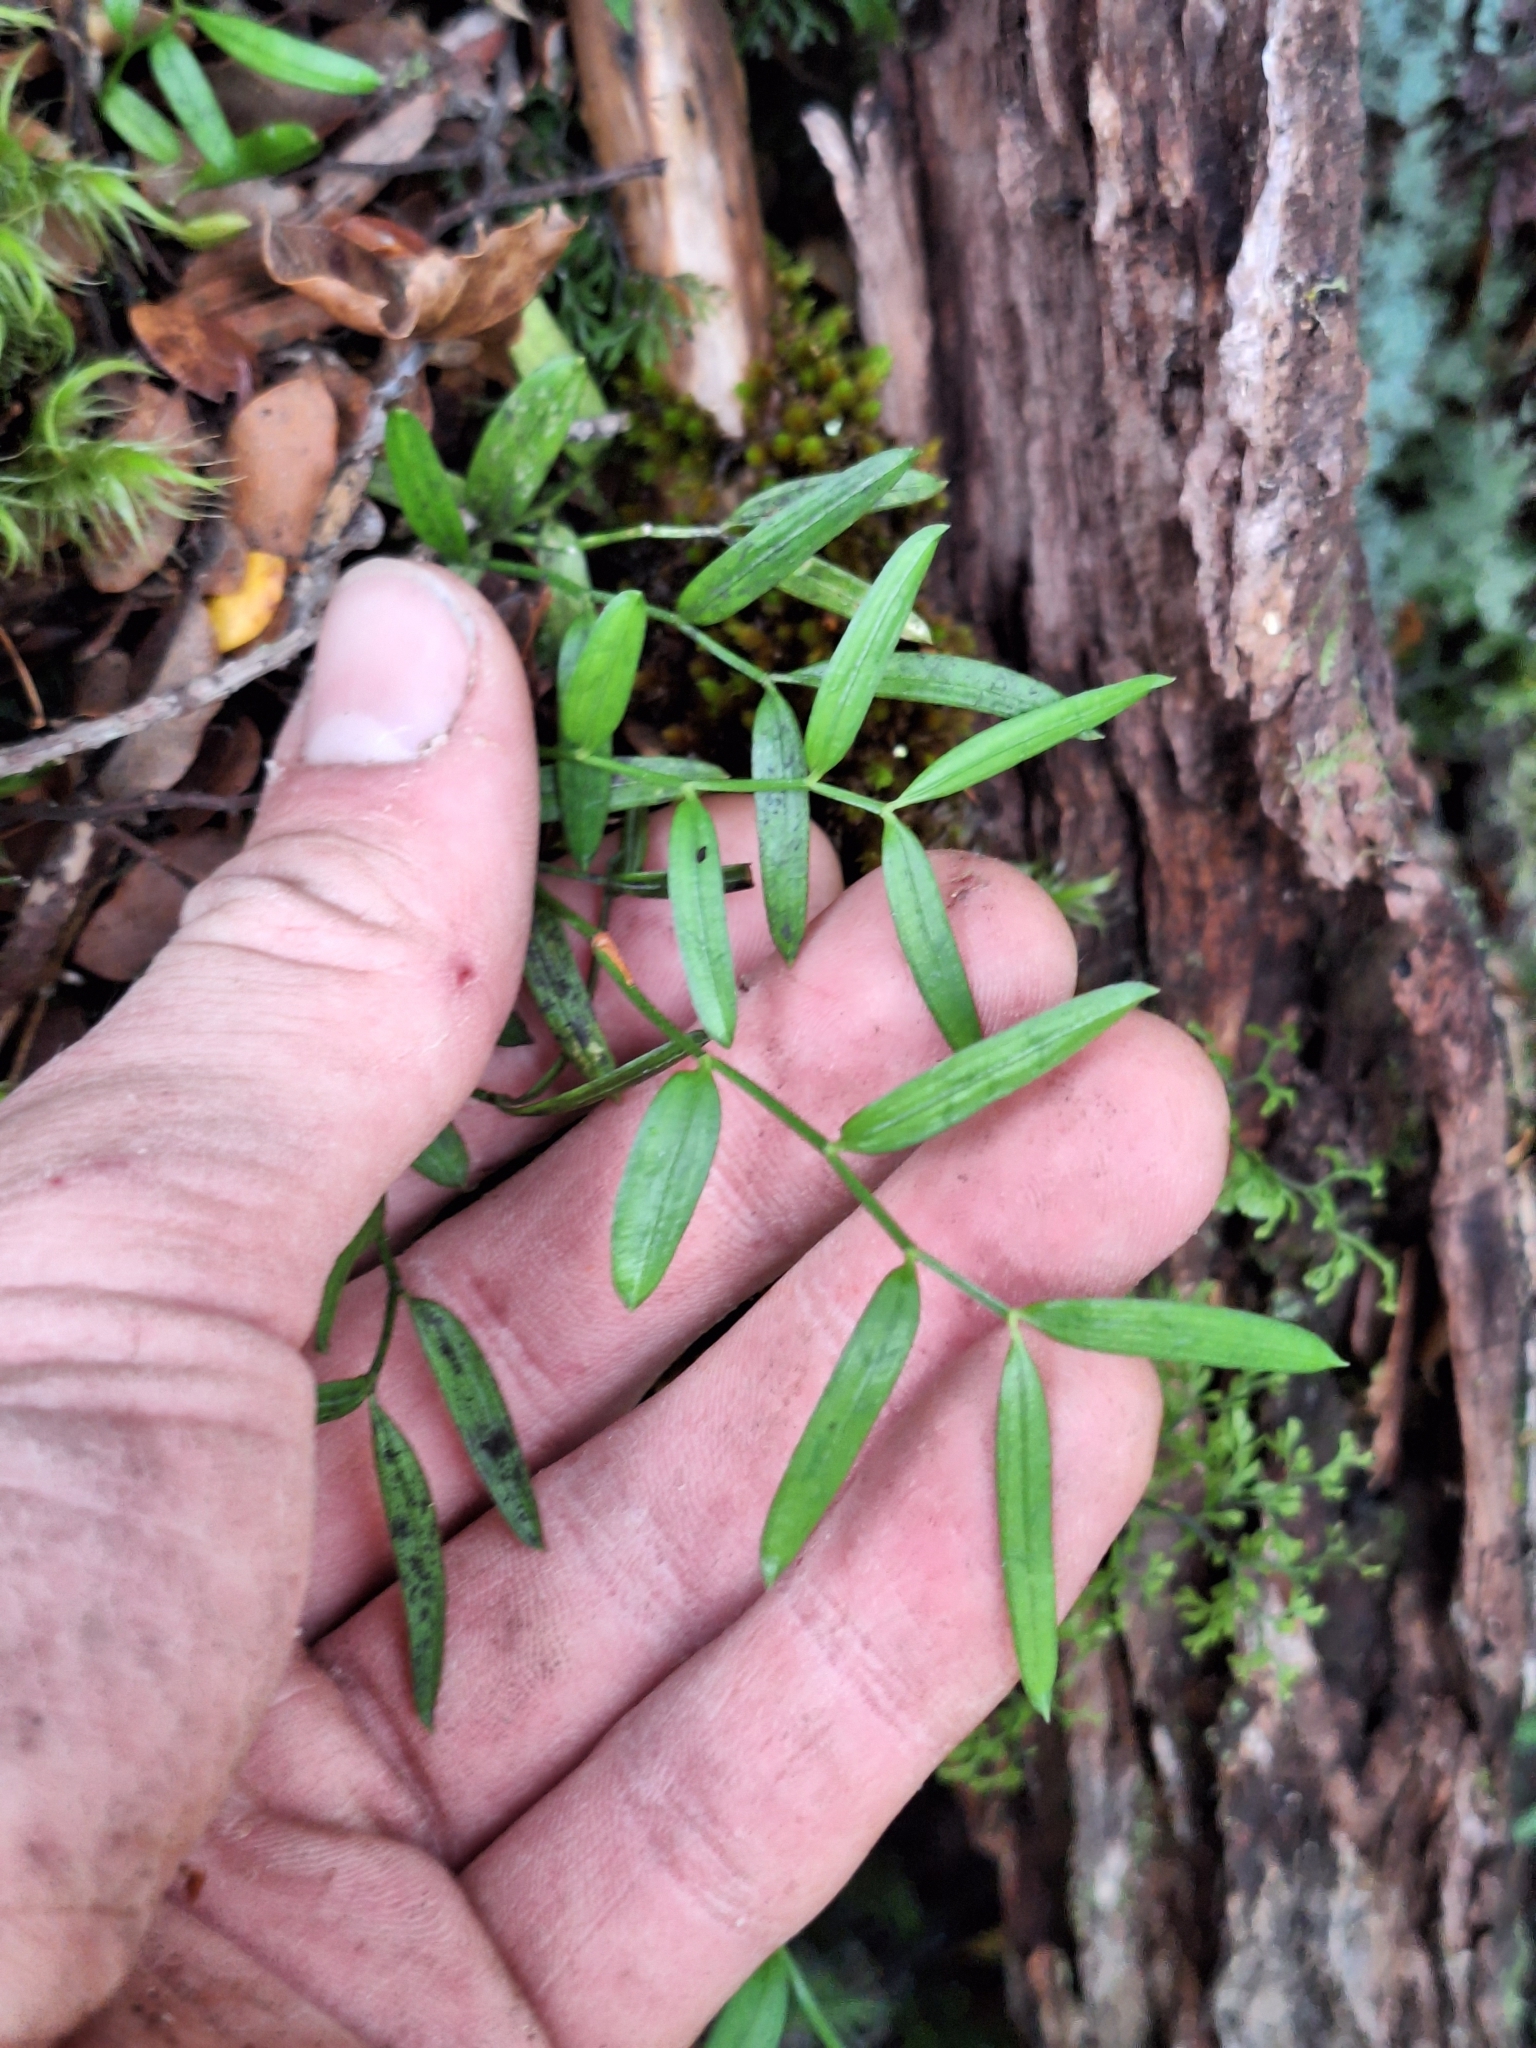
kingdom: Plantae
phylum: Tracheophyta
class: Liliopsida
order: Liliales
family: Alstroemeriaceae
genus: Luzuriaga
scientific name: Luzuriaga parviflora
